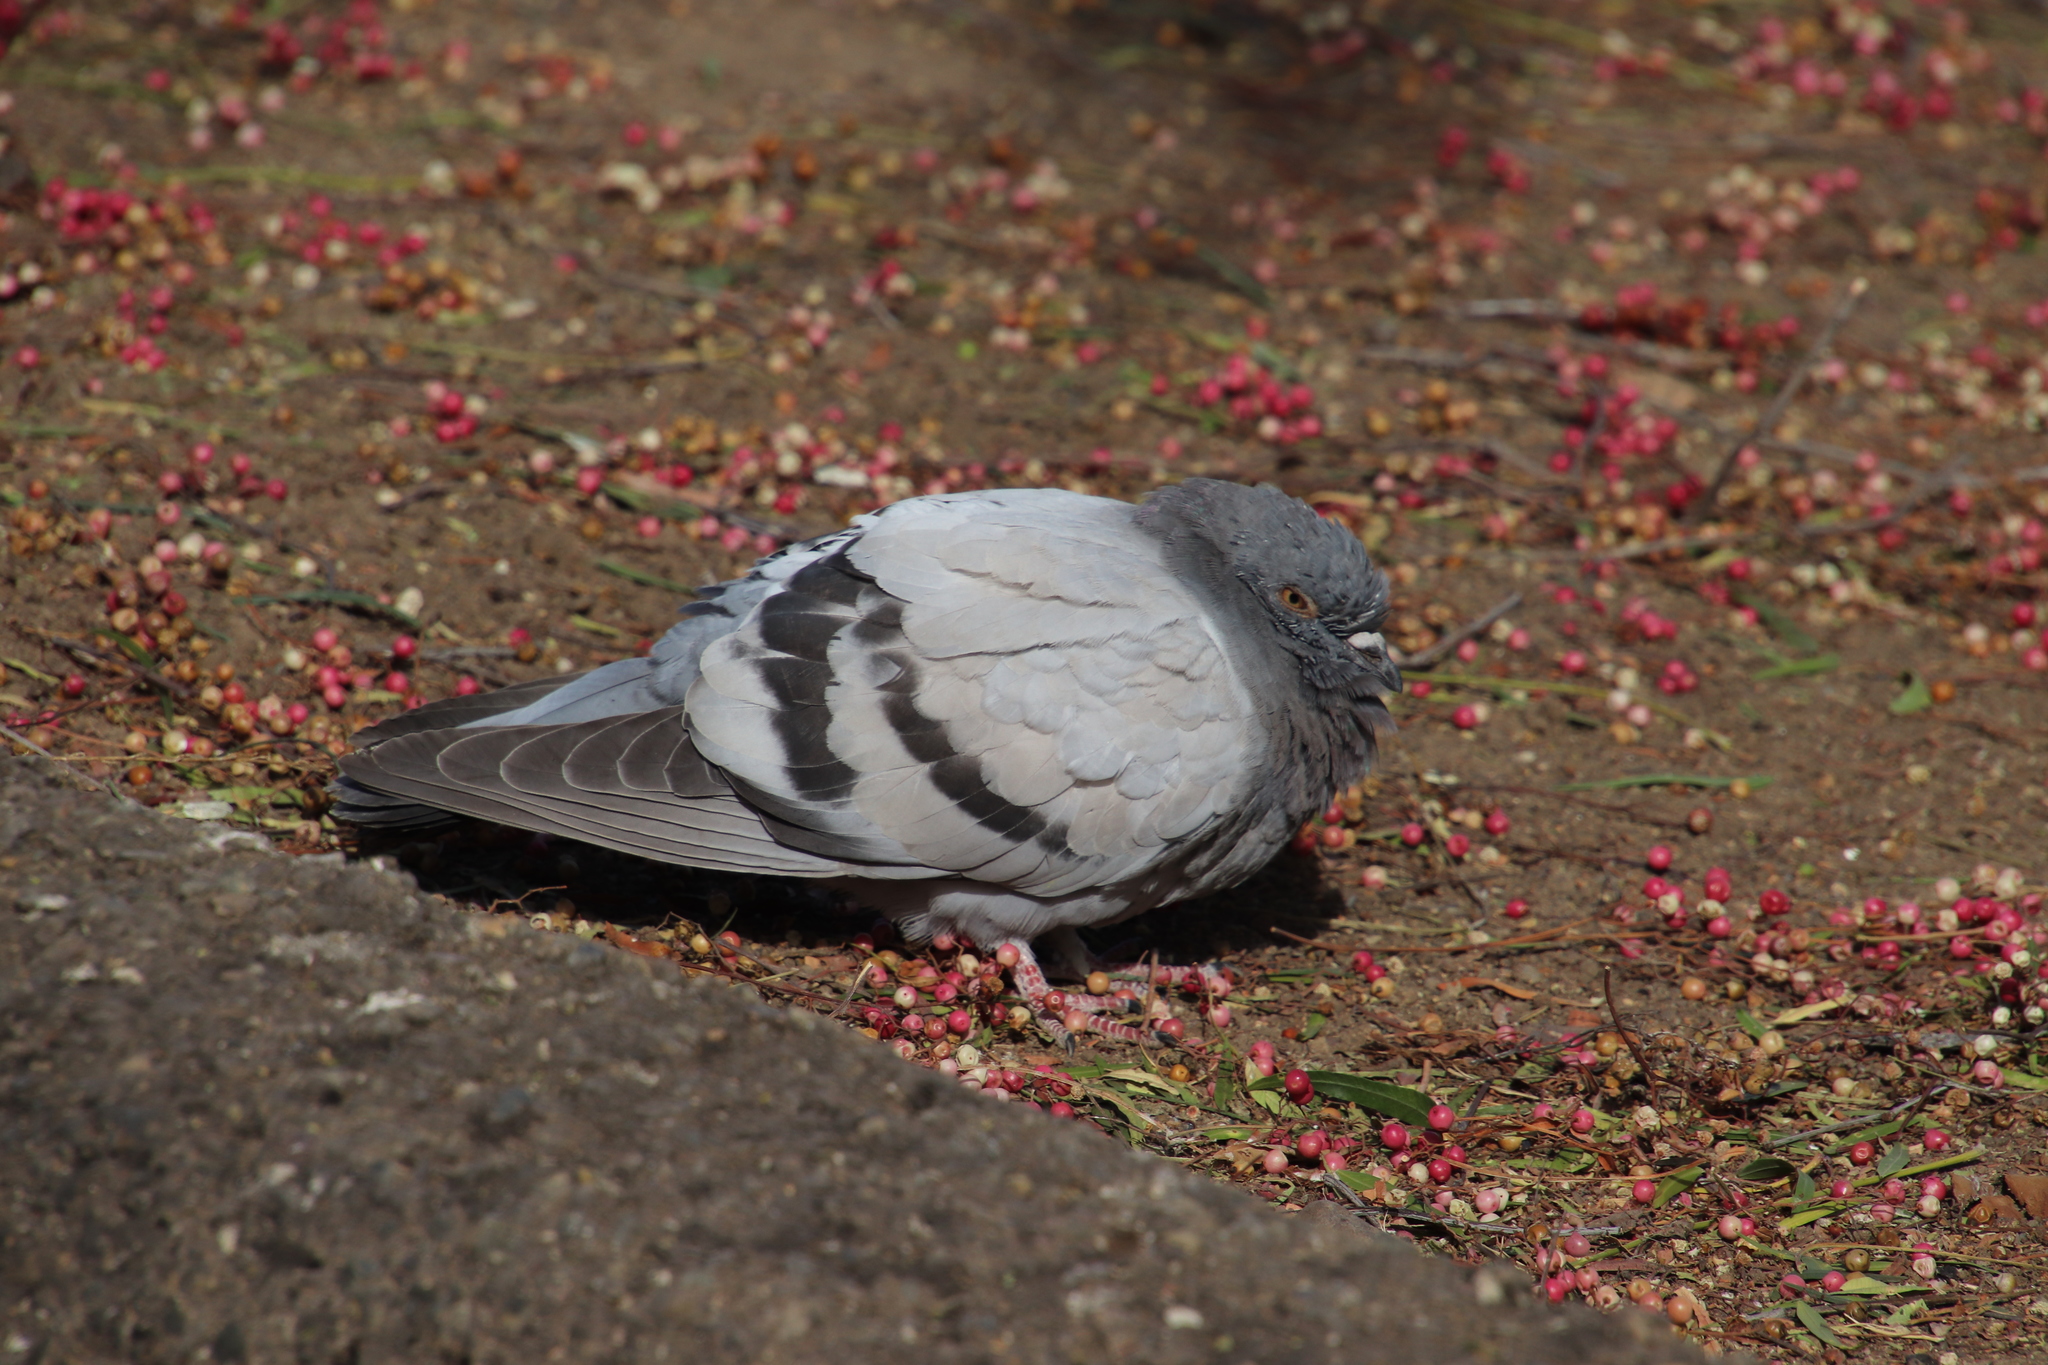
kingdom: Animalia
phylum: Chordata
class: Aves
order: Columbiformes
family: Columbidae
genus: Columba
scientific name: Columba livia
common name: Rock pigeon
